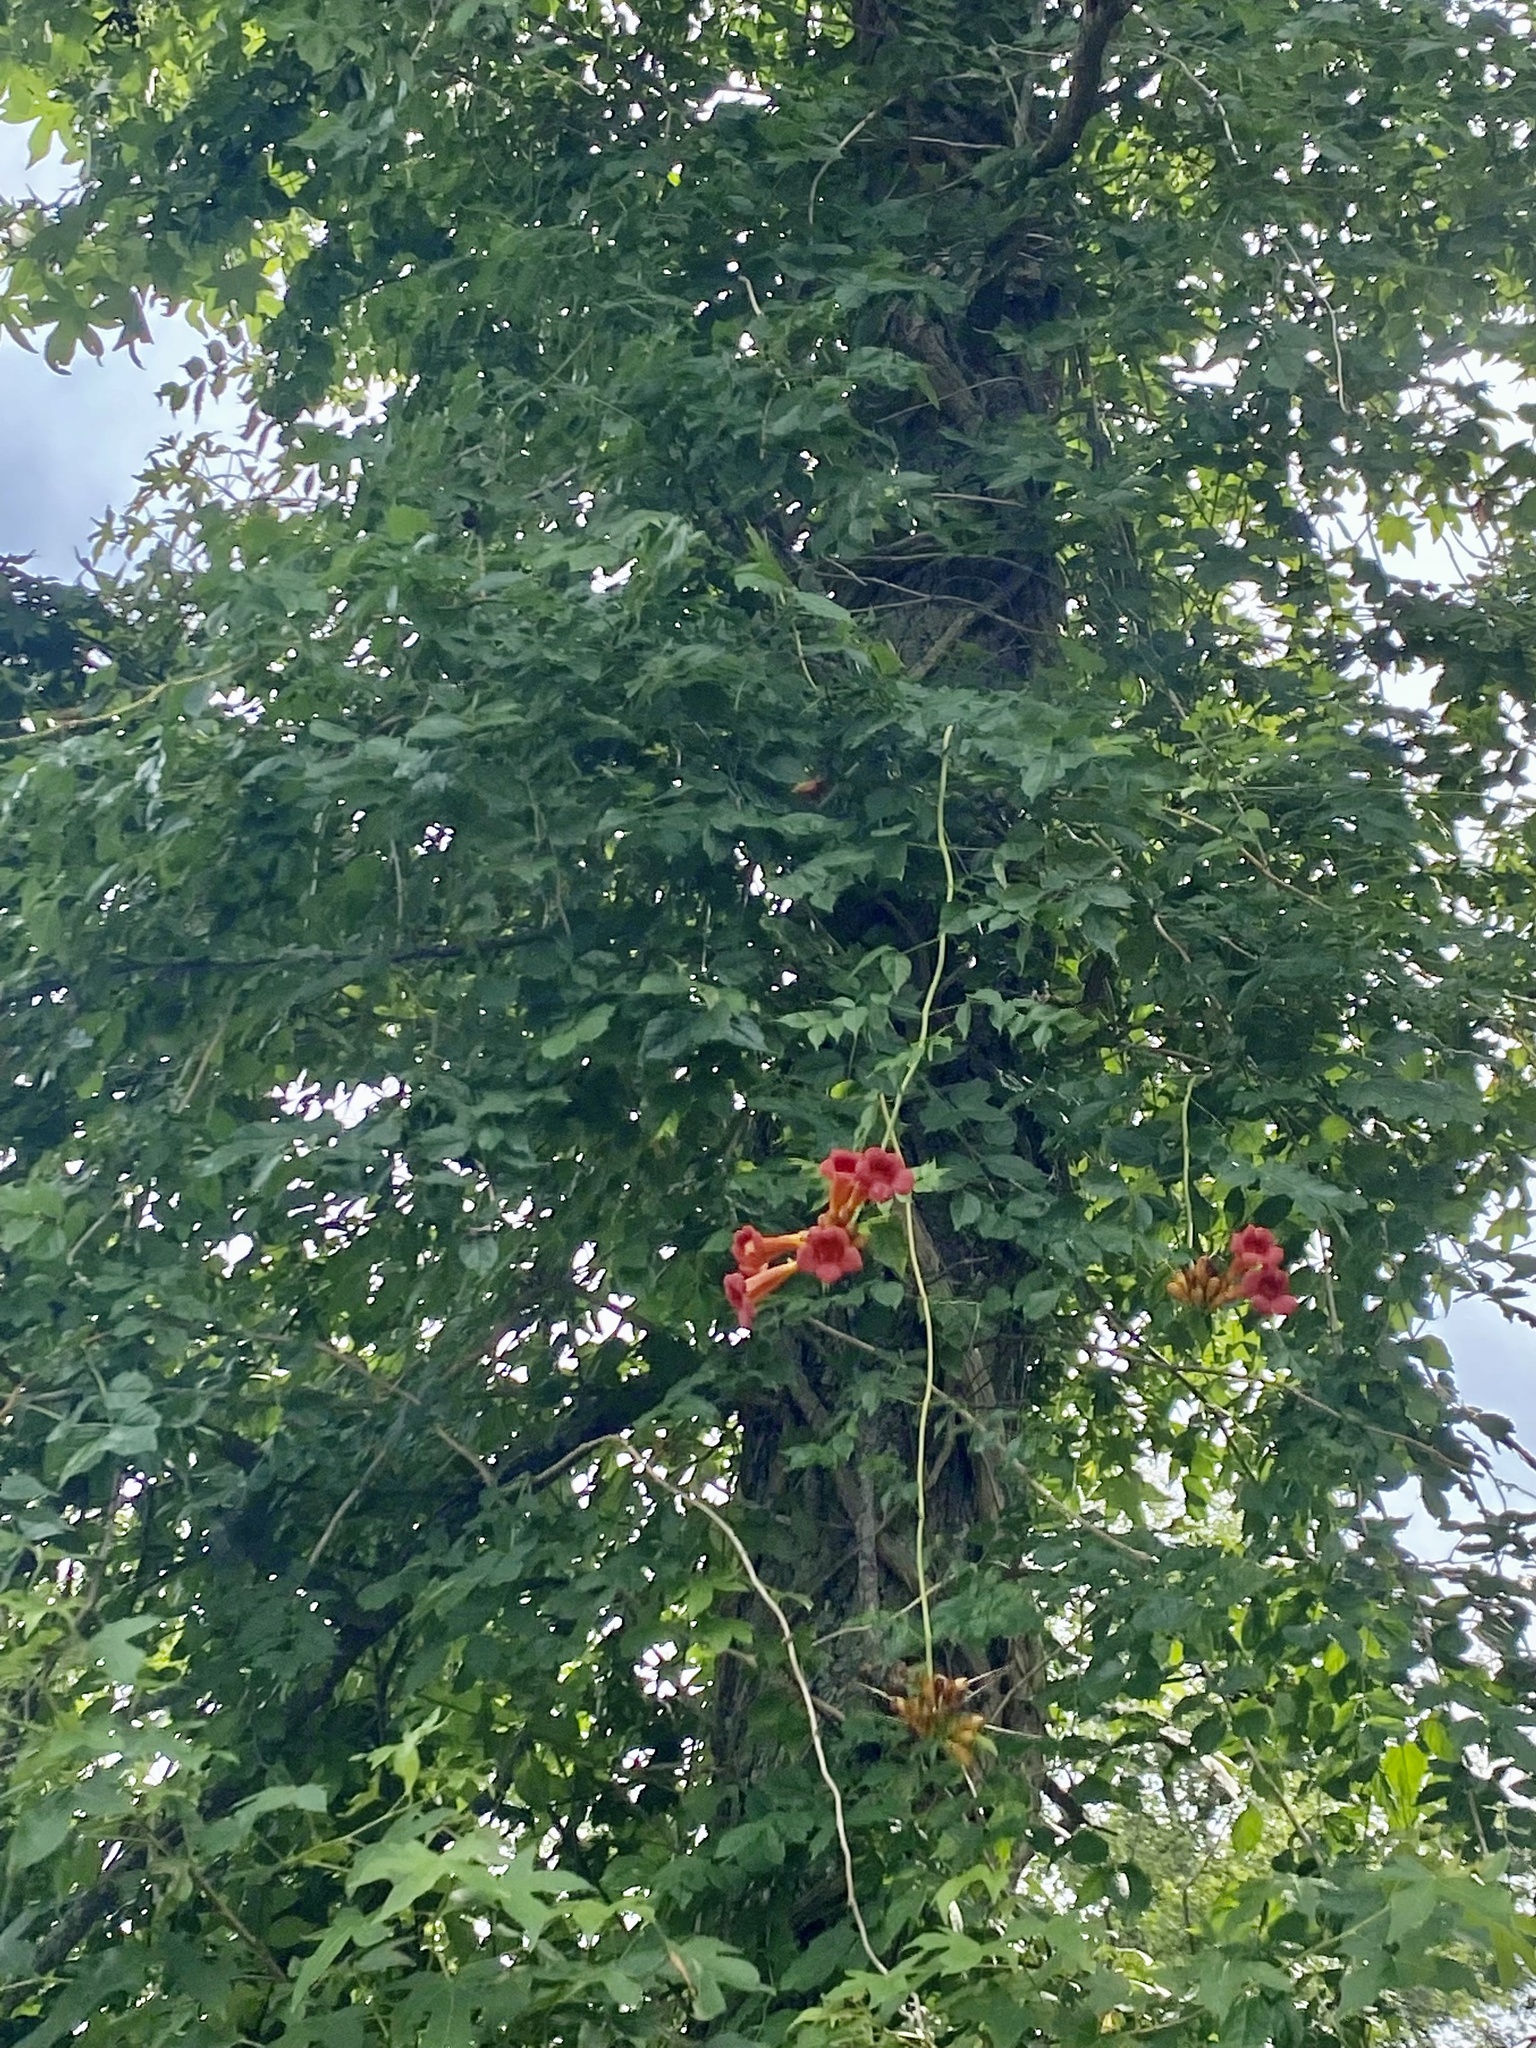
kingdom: Plantae
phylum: Tracheophyta
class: Magnoliopsida
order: Lamiales
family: Bignoniaceae
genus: Campsis
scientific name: Campsis radicans
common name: Trumpet-creeper
